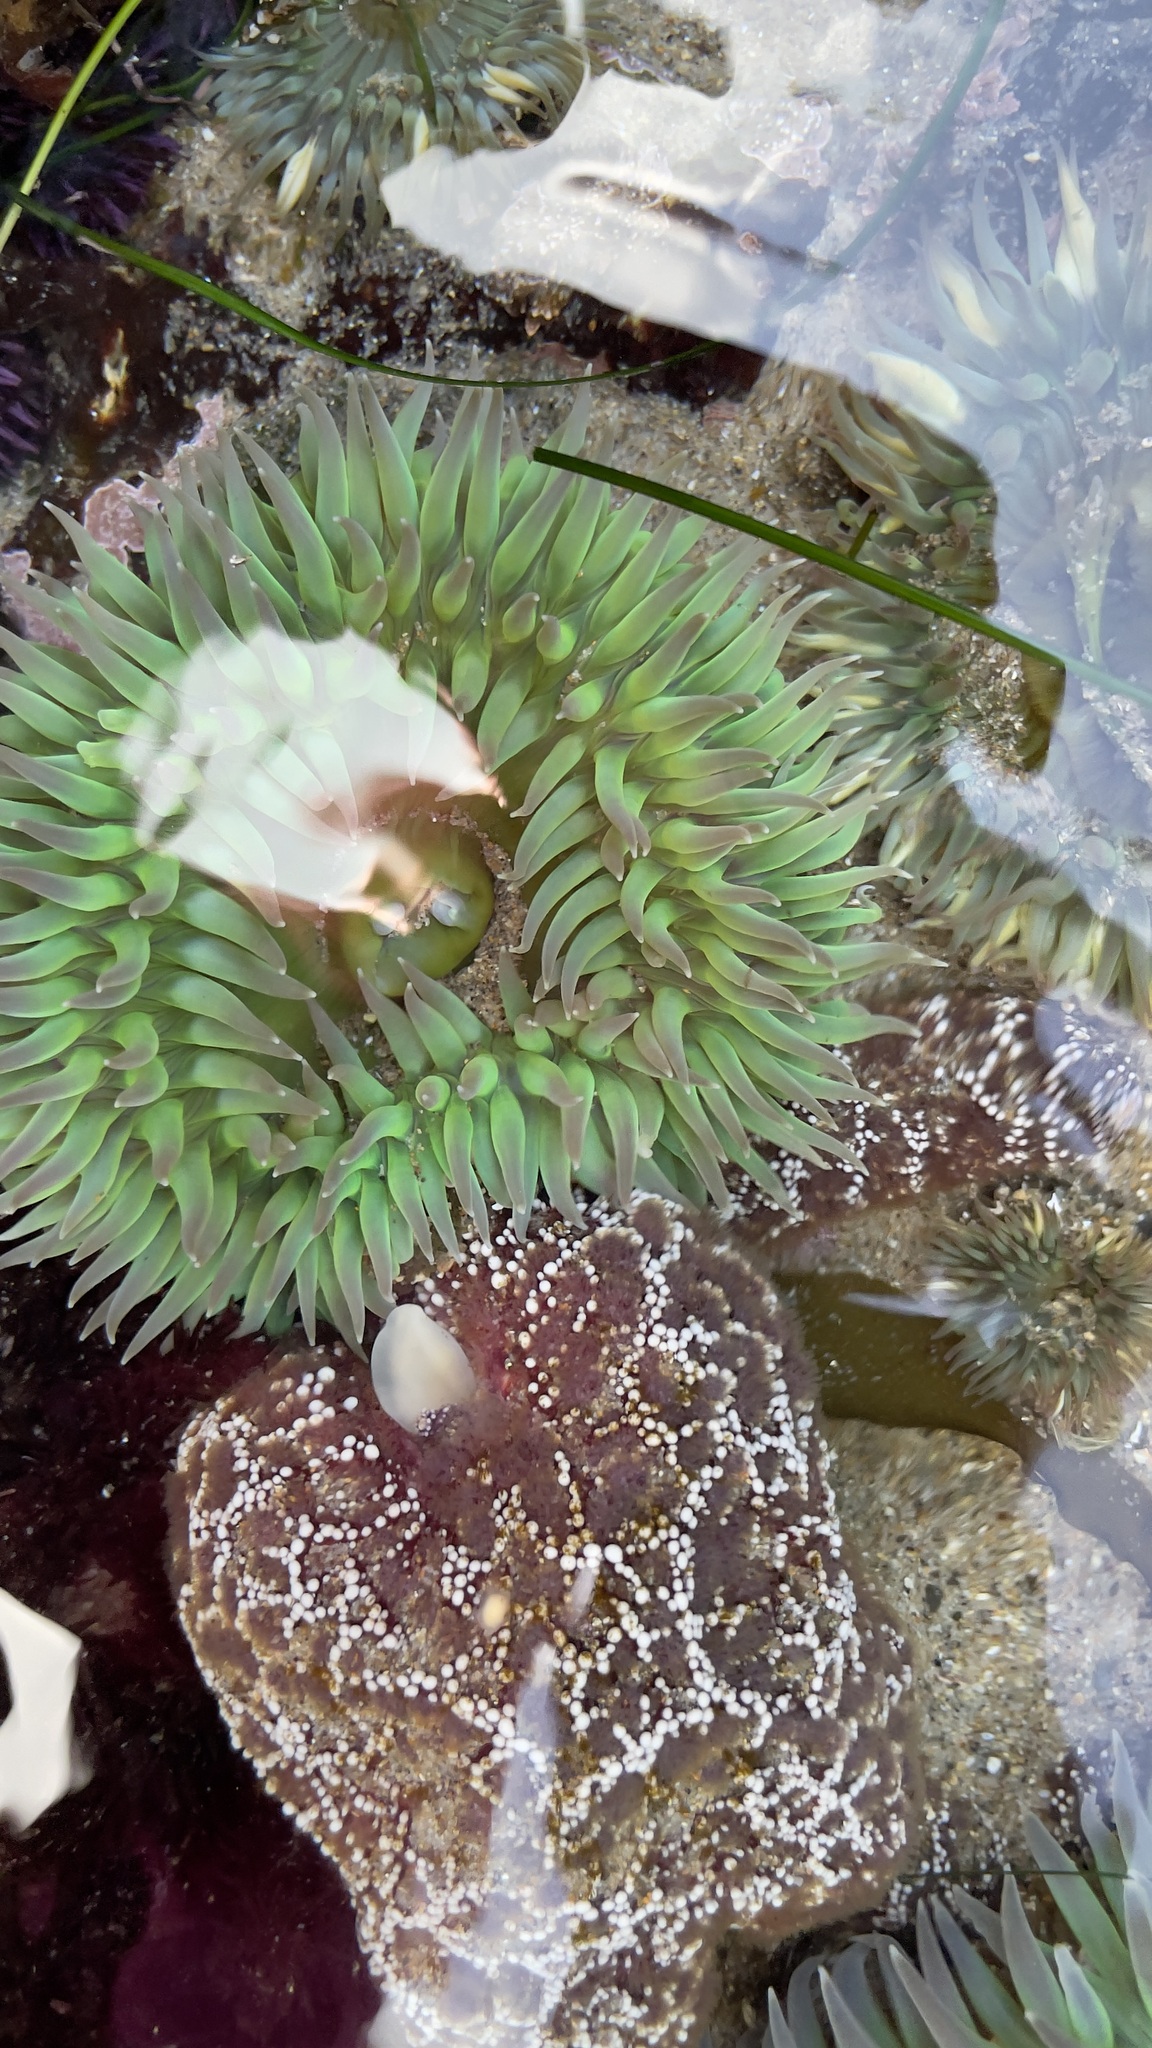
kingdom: Animalia
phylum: Cnidaria
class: Anthozoa
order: Actiniaria
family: Actiniidae
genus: Anthopleura
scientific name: Anthopleura xanthogrammica
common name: Giant green anemone
